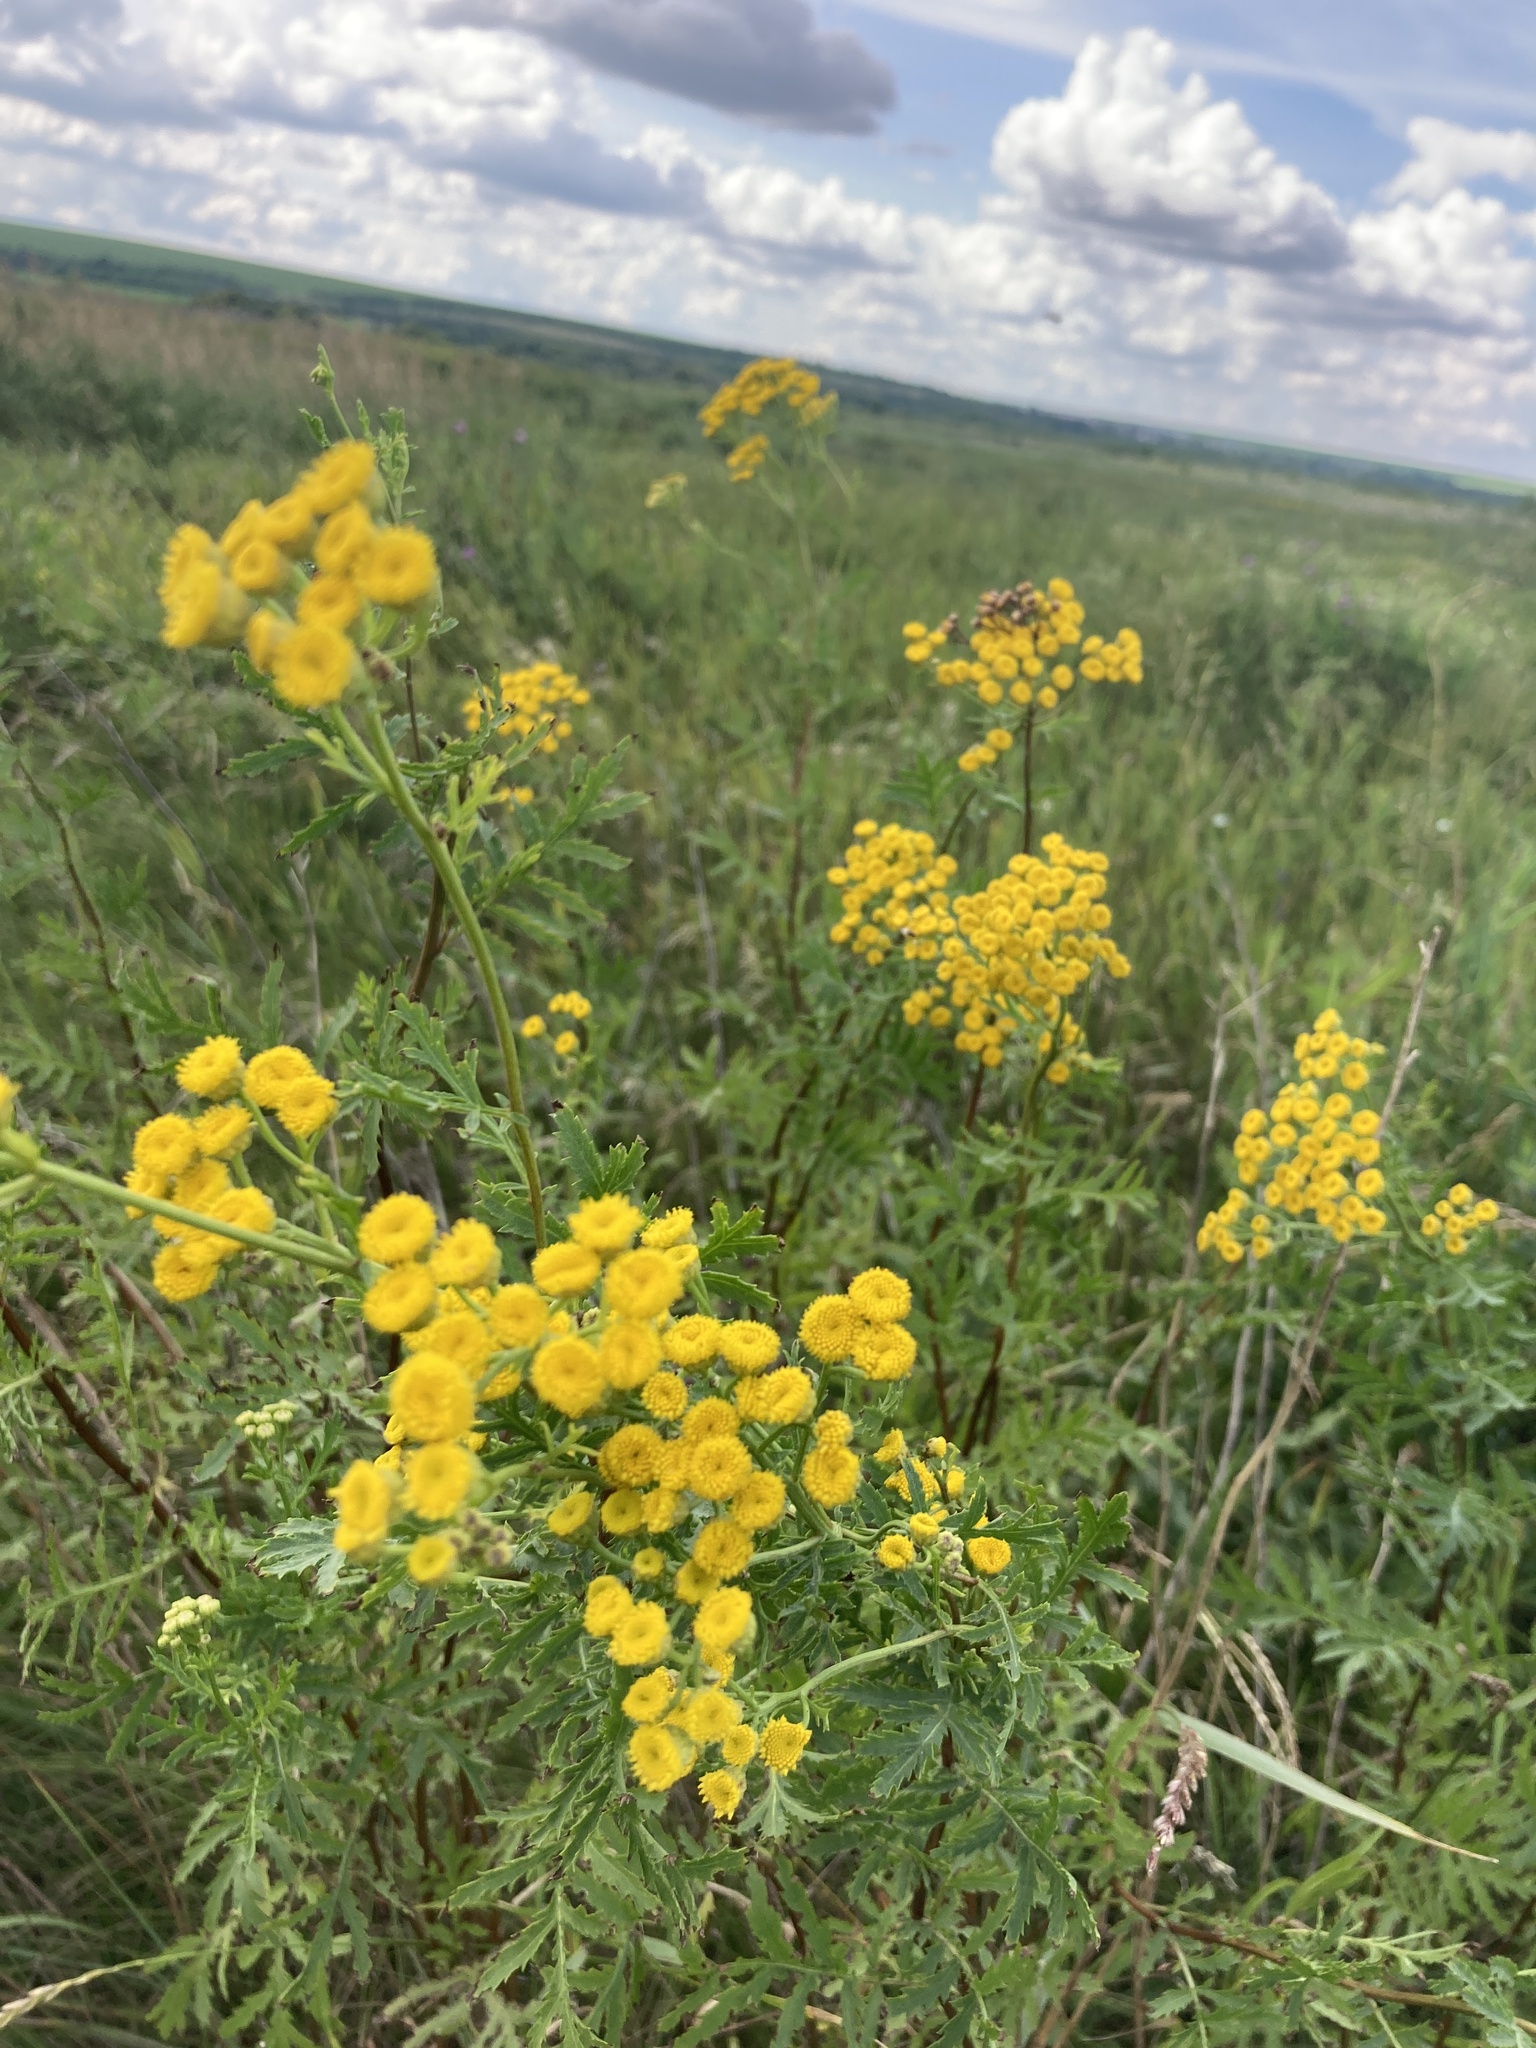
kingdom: Plantae
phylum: Tracheophyta
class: Magnoliopsida
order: Asterales
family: Asteraceae
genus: Tanacetum
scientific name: Tanacetum vulgare
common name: Common tansy
